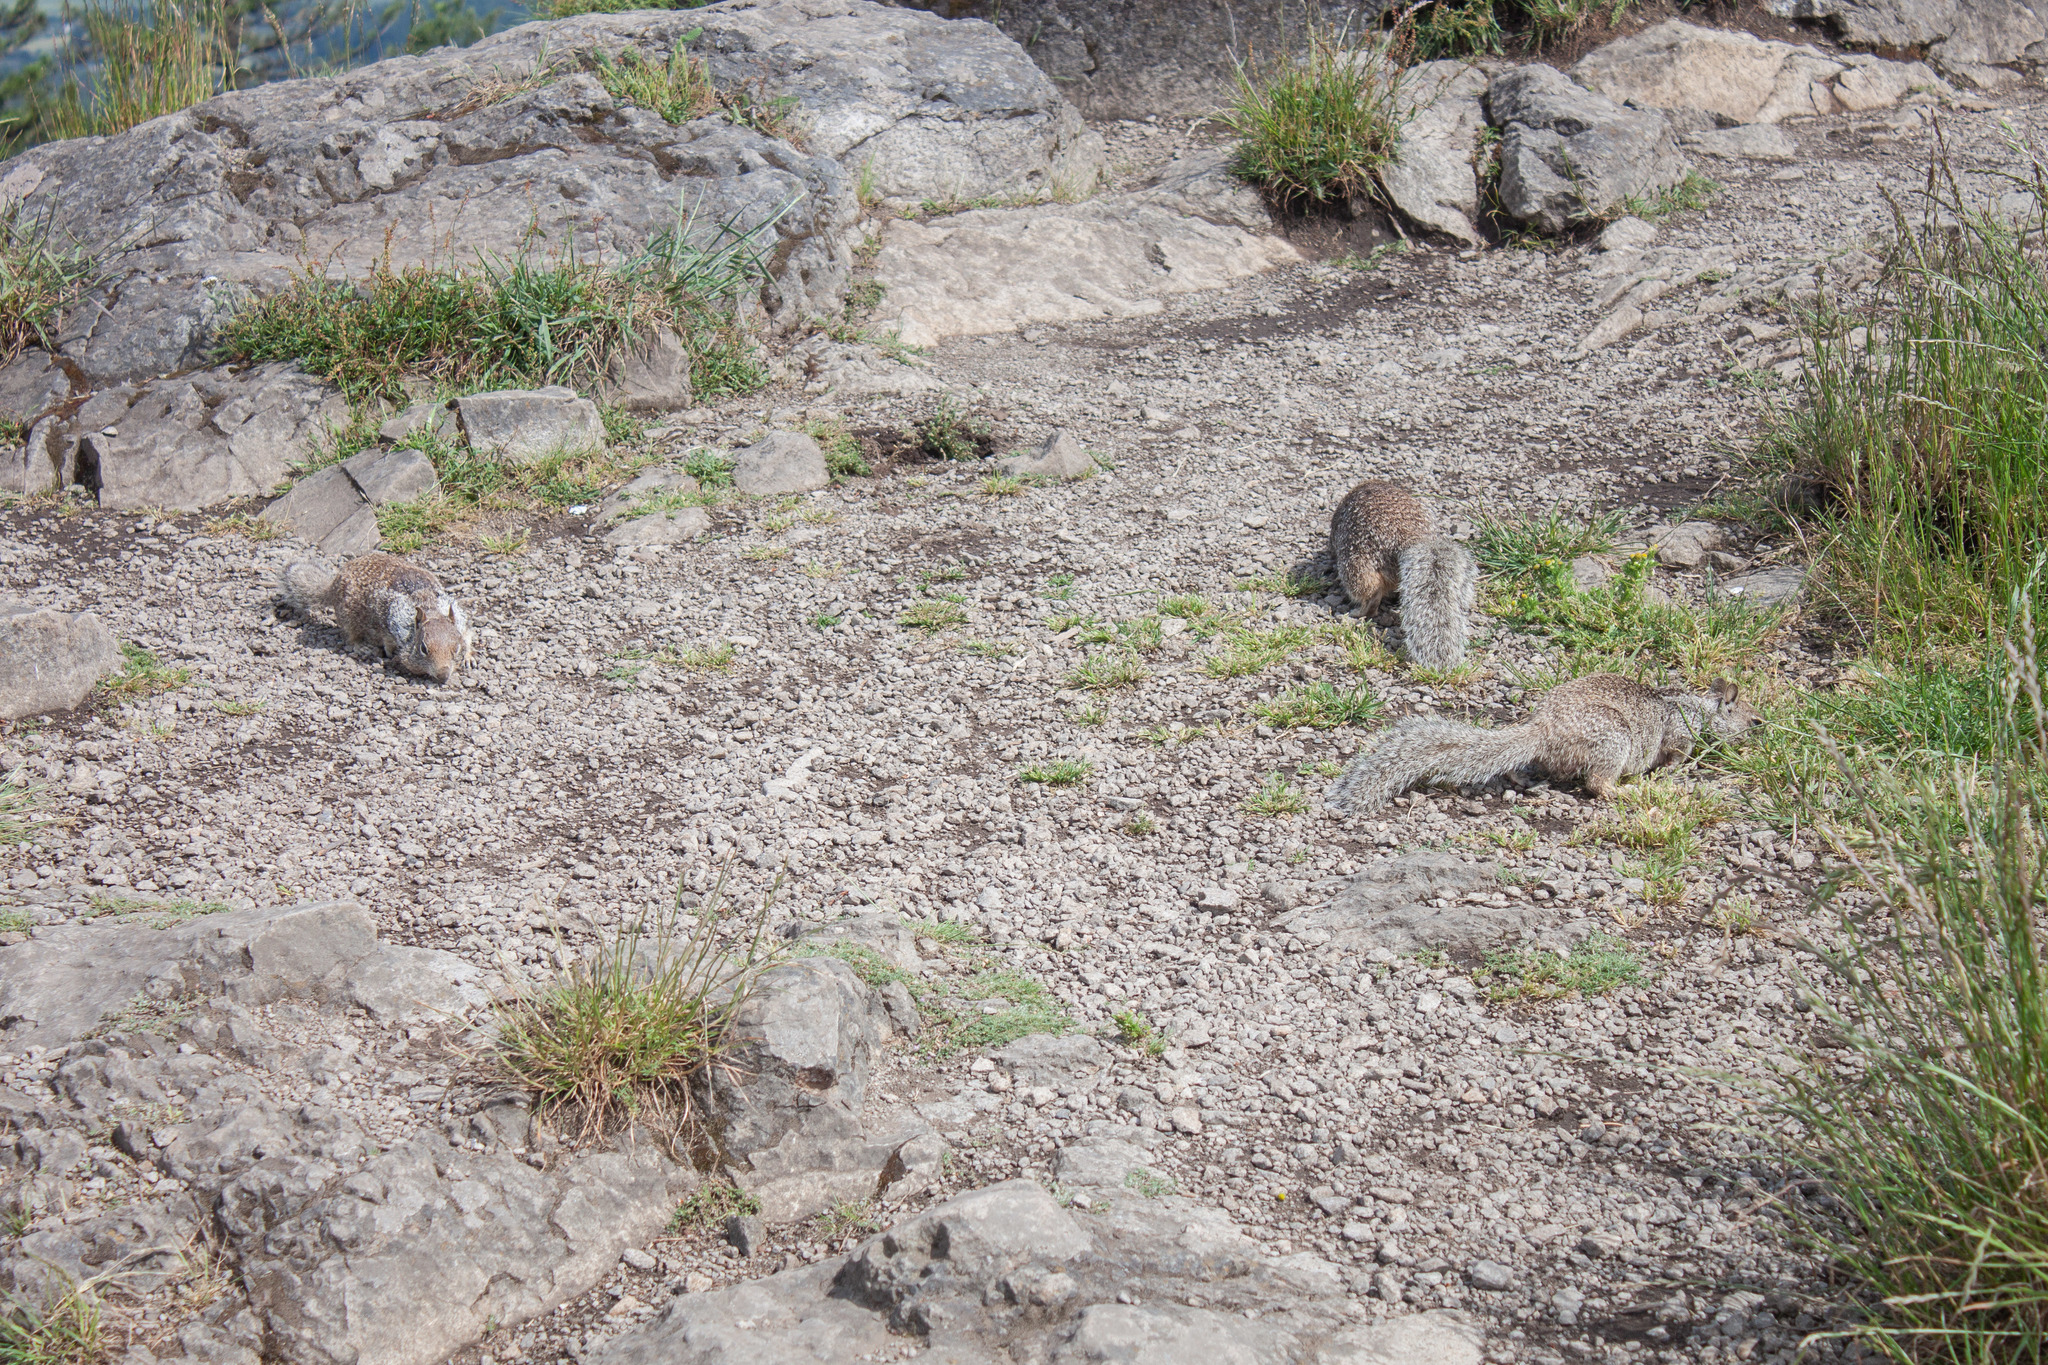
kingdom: Animalia
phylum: Chordata
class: Mammalia
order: Rodentia
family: Sciuridae
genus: Otospermophilus
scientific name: Otospermophilus beecheyi
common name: California ground squirrel
